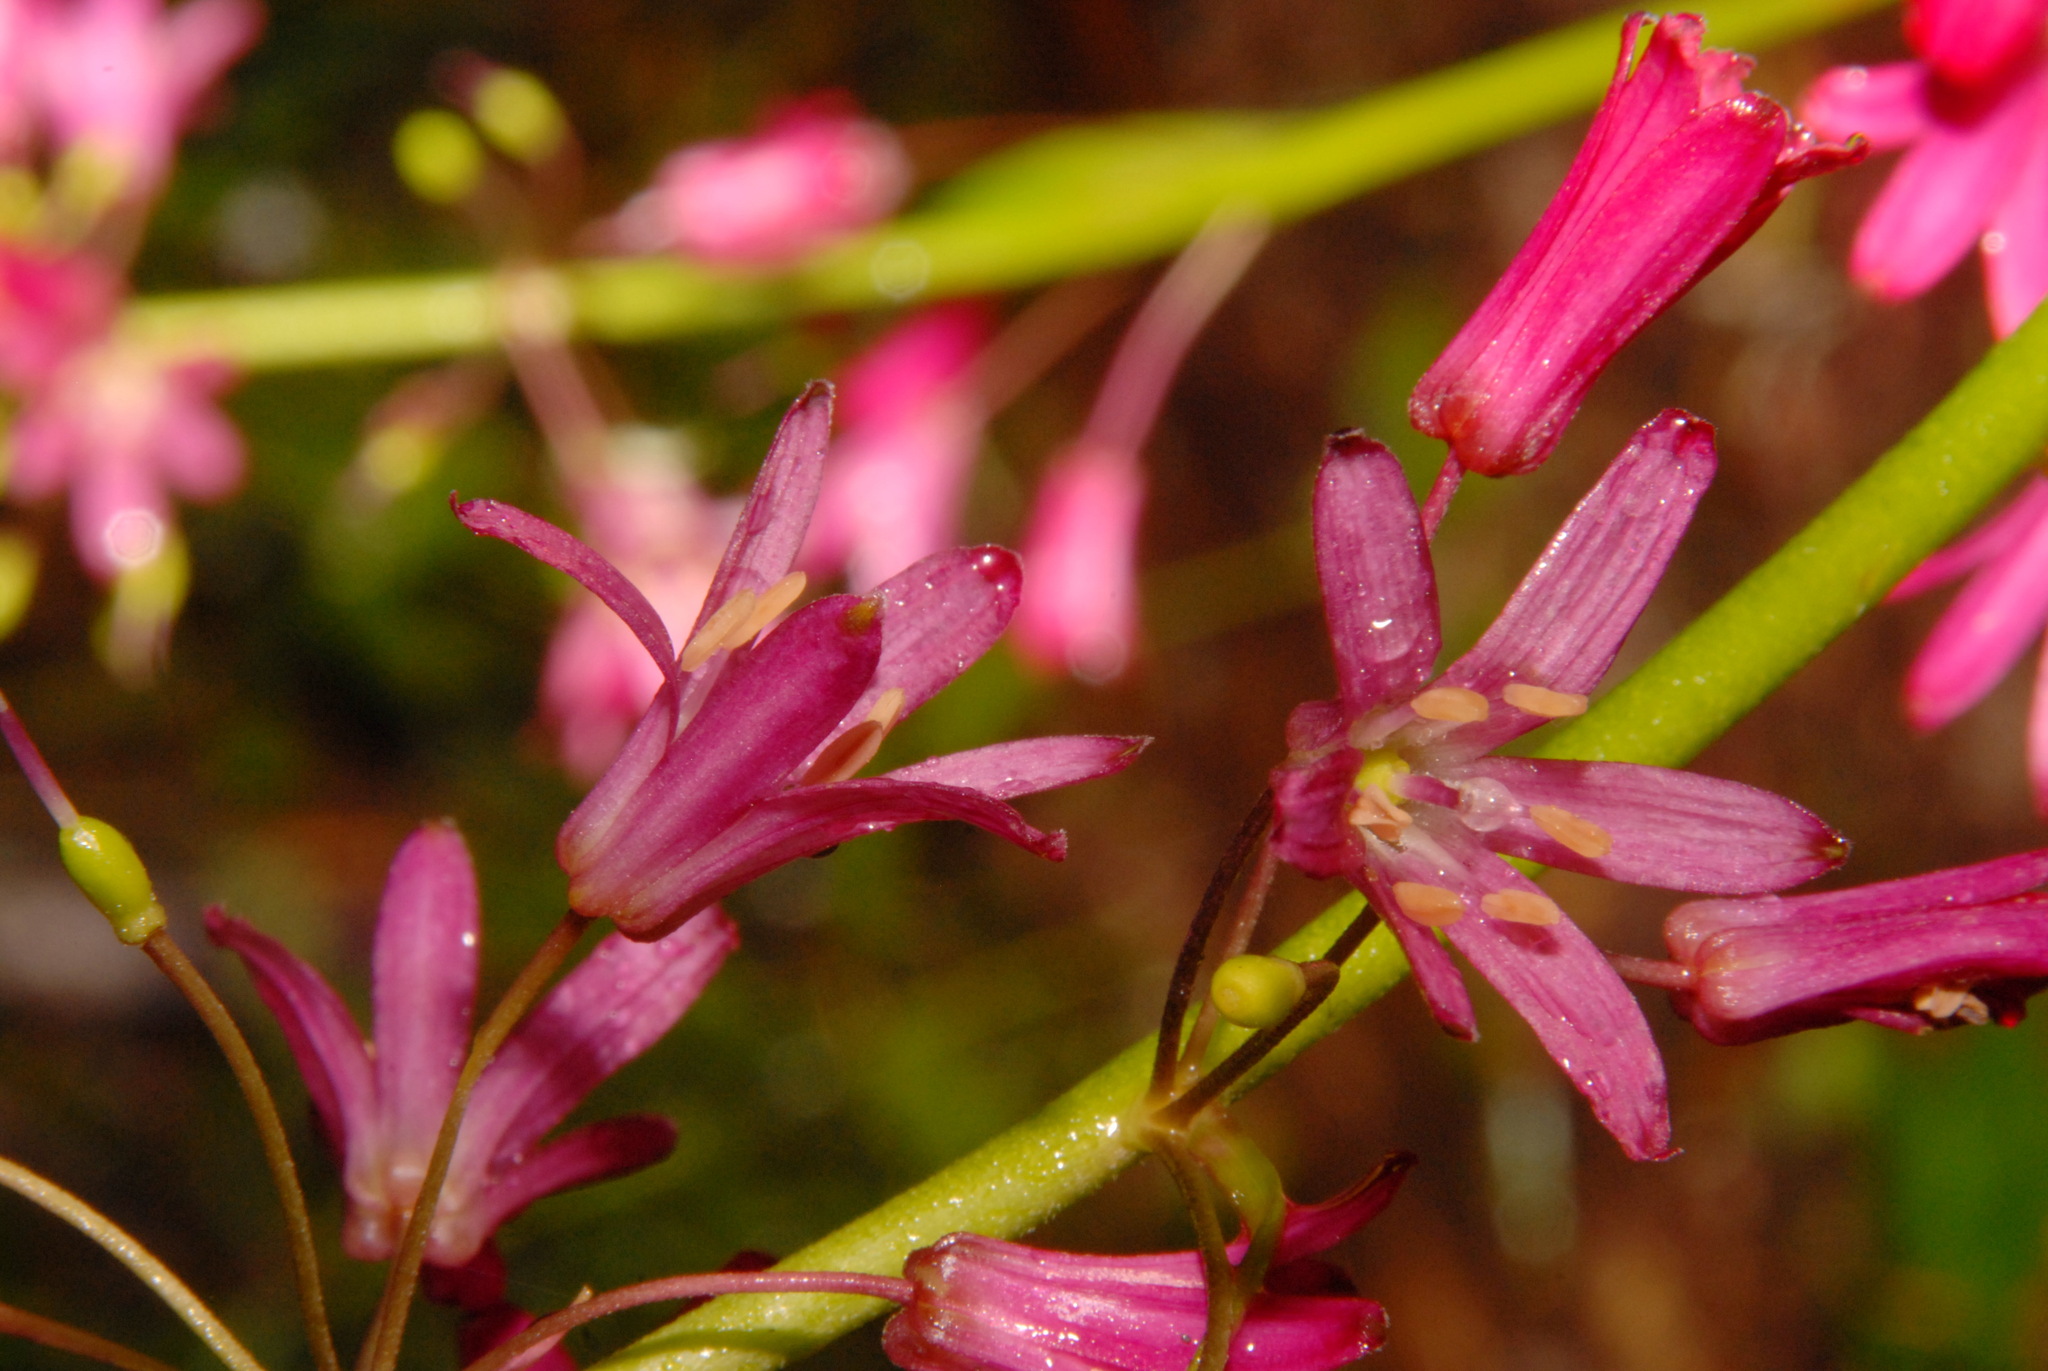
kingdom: Plantae
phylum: Tracheophyta
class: Liliopsida
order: Liliales
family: Liliaceae
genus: Clintonia
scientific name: Clintonia andrewsiana
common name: Red clintonia
